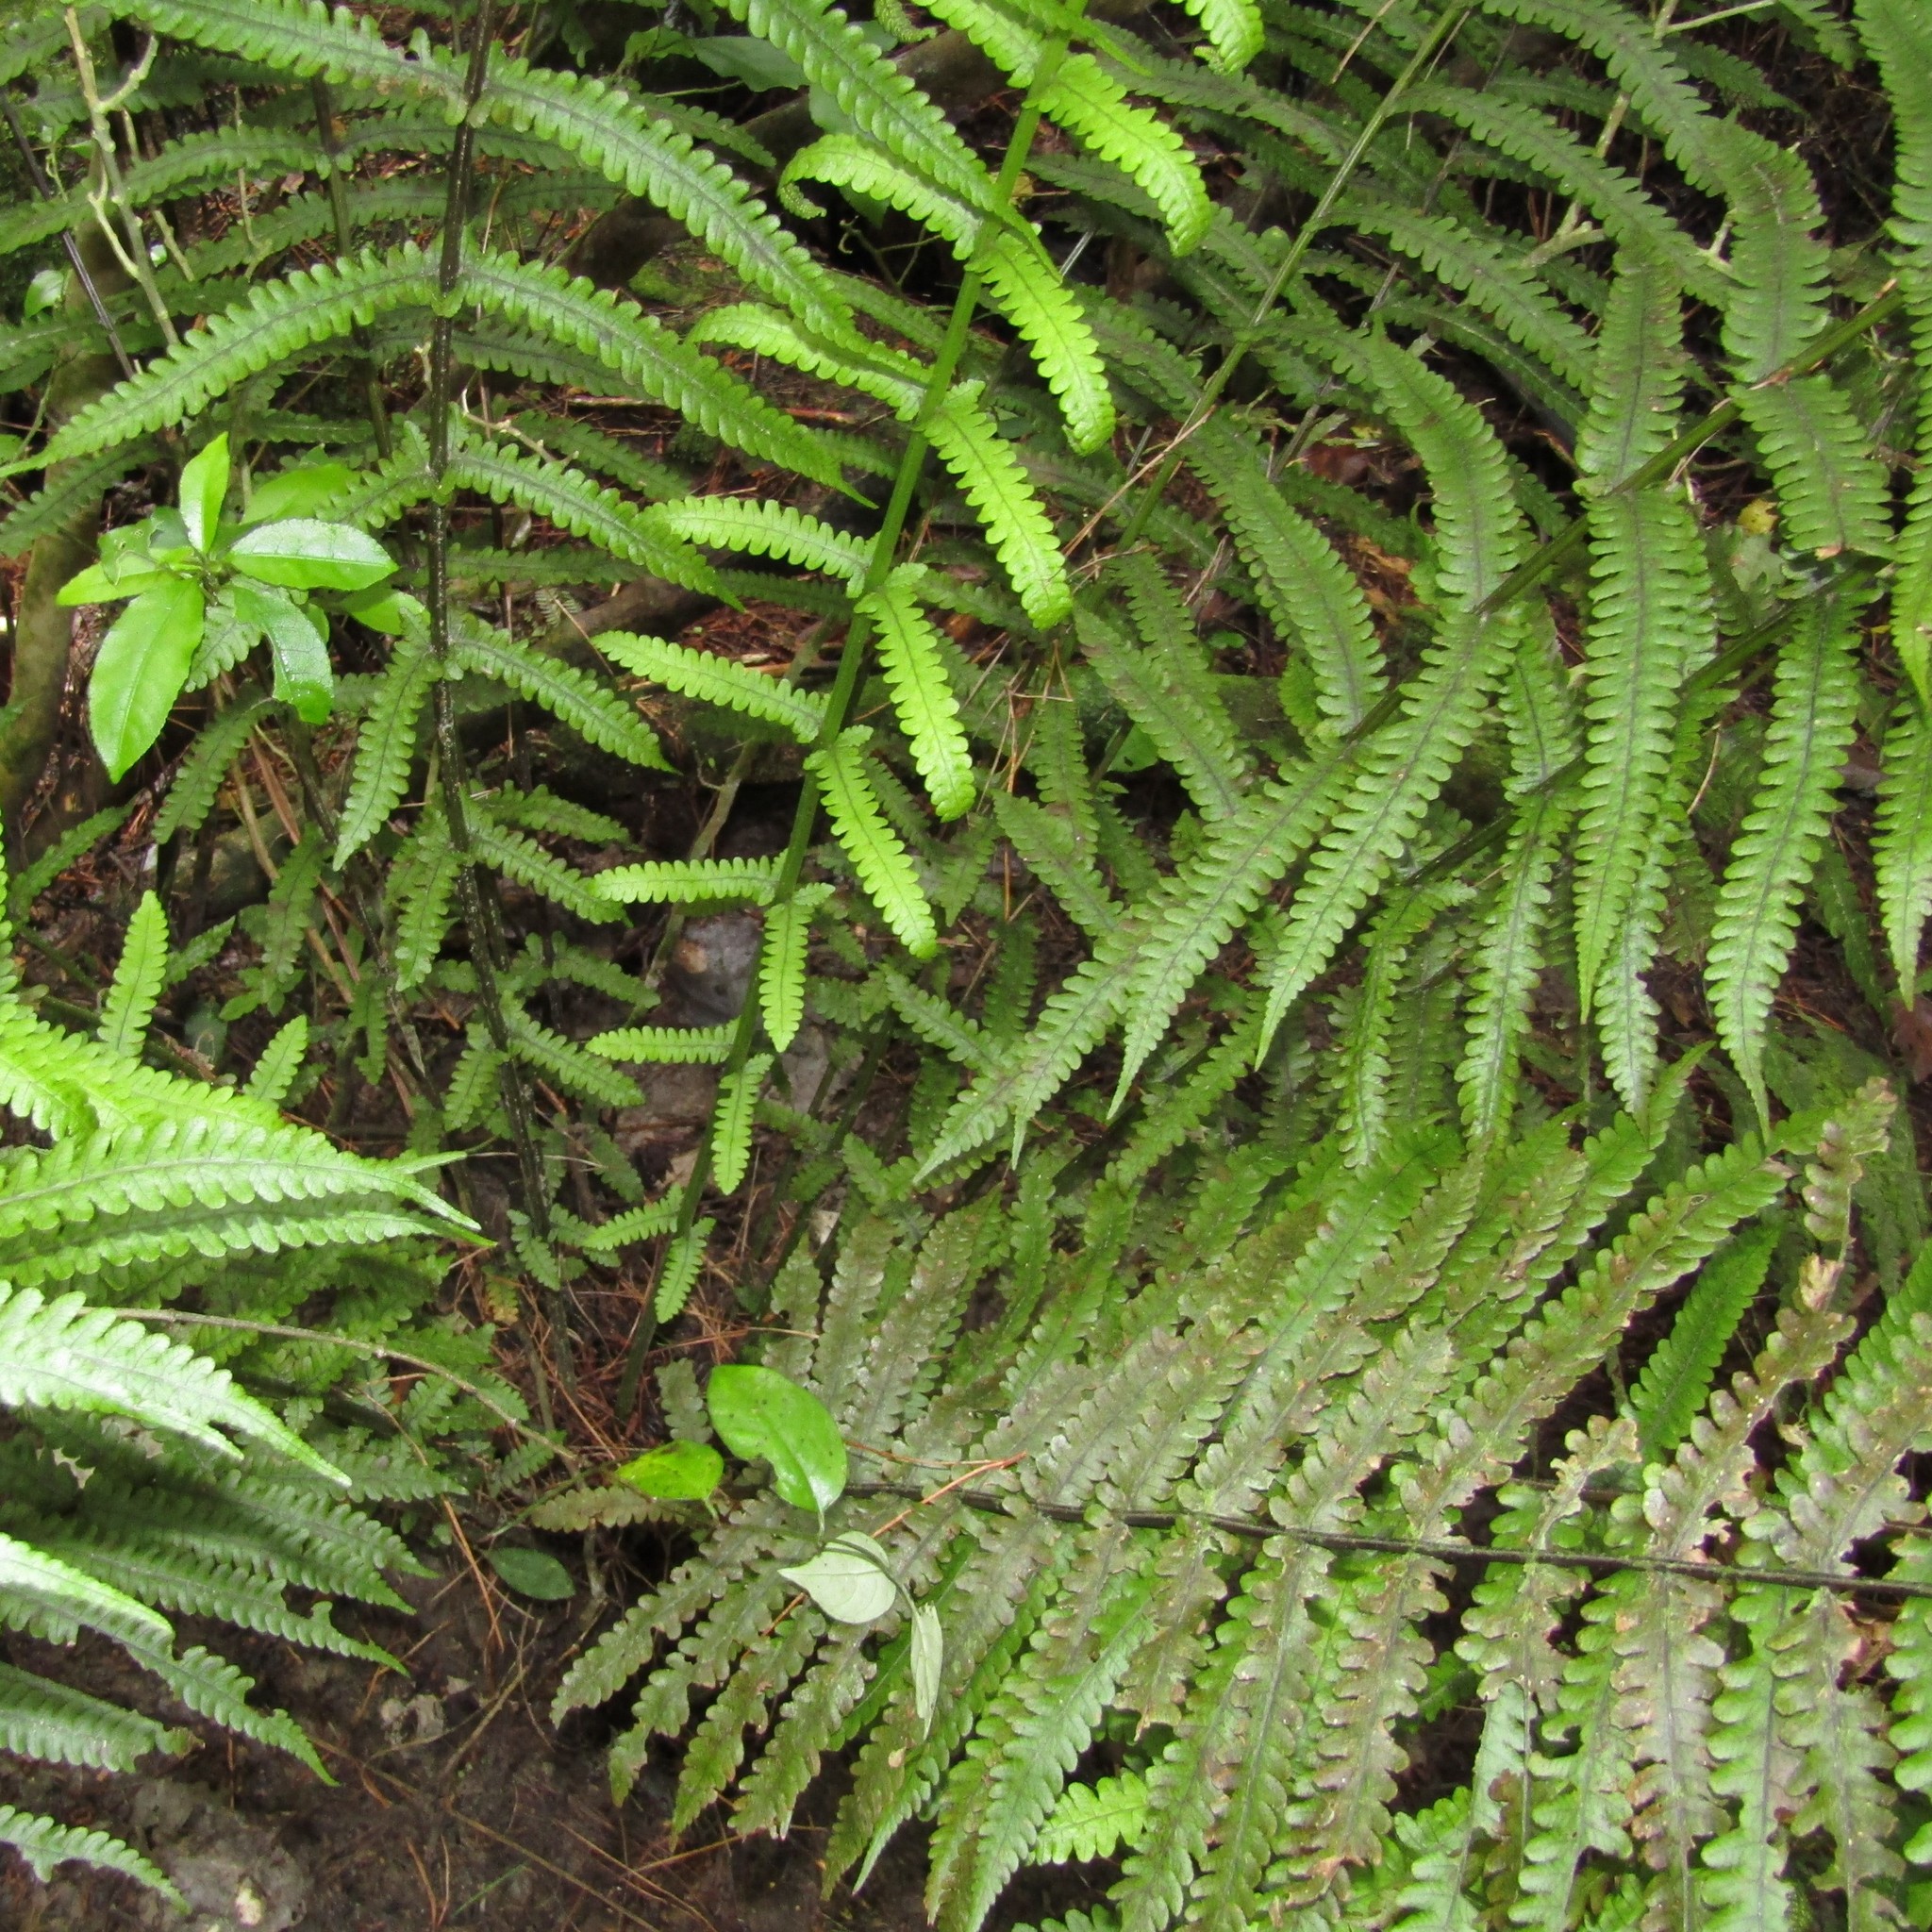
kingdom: Plantae
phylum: Tracheophyta
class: Polypodiopsida
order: Polypodiales
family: Thelypteridaceae
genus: Pakau
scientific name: Pakau pennigera
